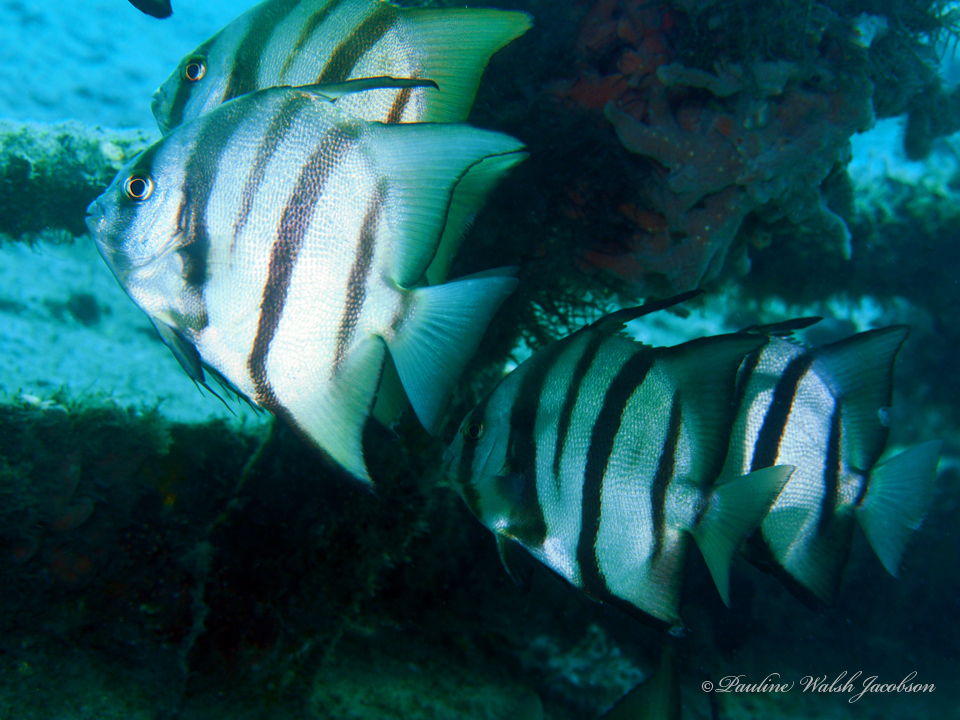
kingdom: Animalia
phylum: Chordata
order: Perciformes
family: Ephippidae
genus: Chaetodipterus
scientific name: Chaetodipterus faber
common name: Ocean cobbler
